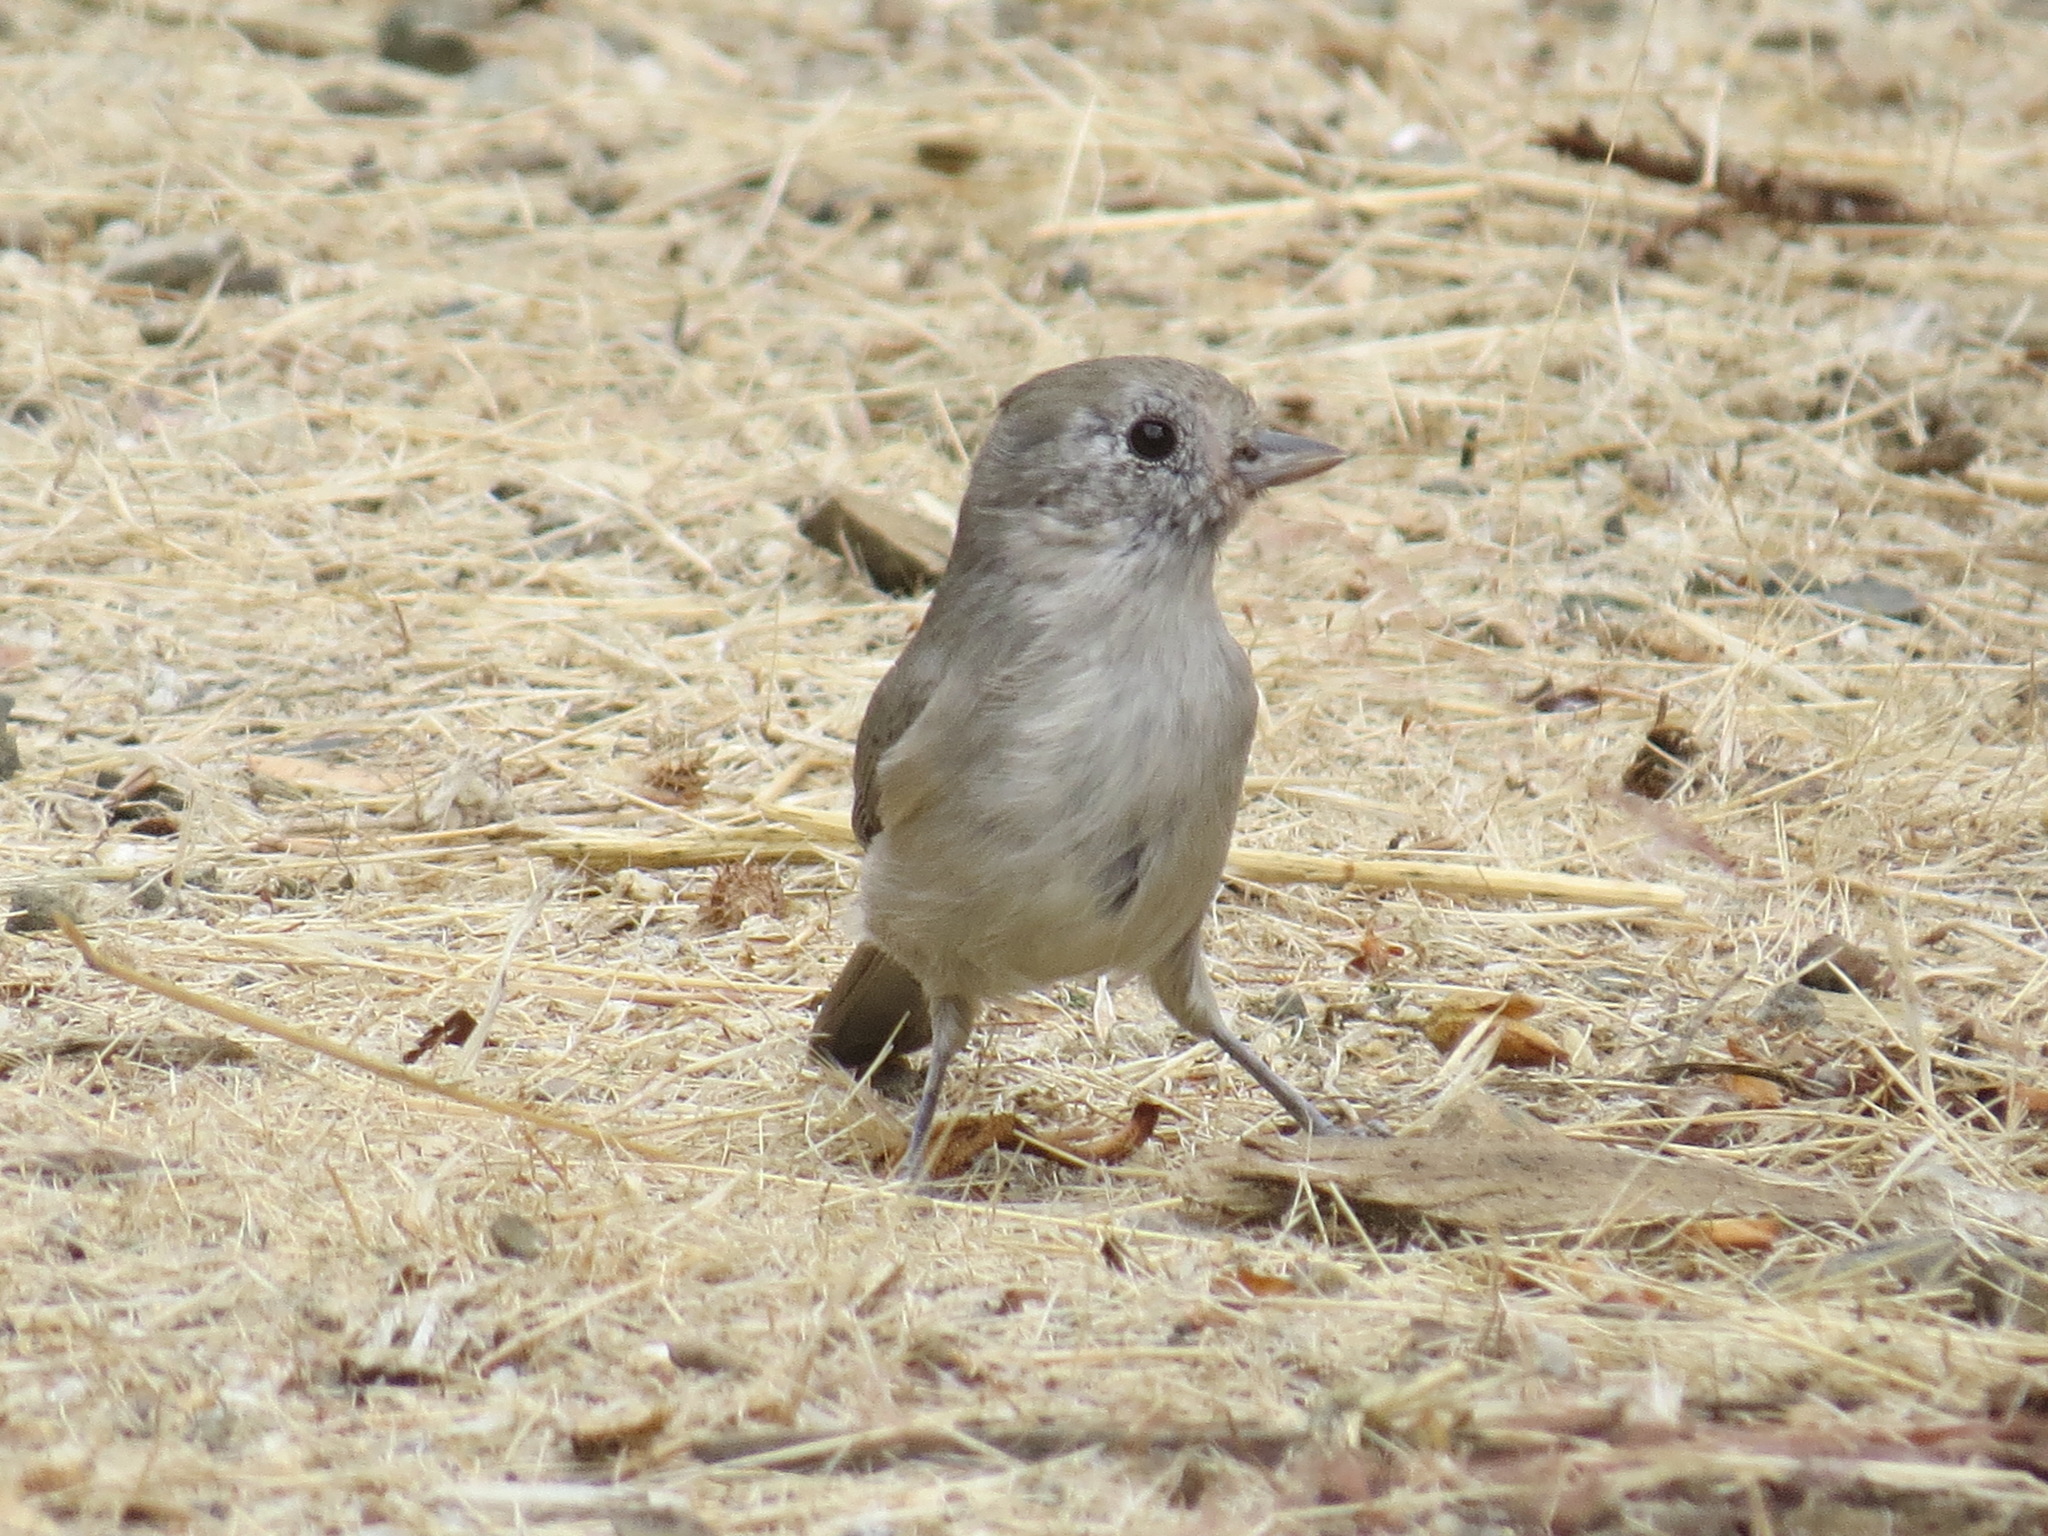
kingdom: Animalia
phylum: Chordata
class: Aves
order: Passeriformes
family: Paridae
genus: Baeolophus
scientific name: Baeolophus inornatus
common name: Oak titmouse
